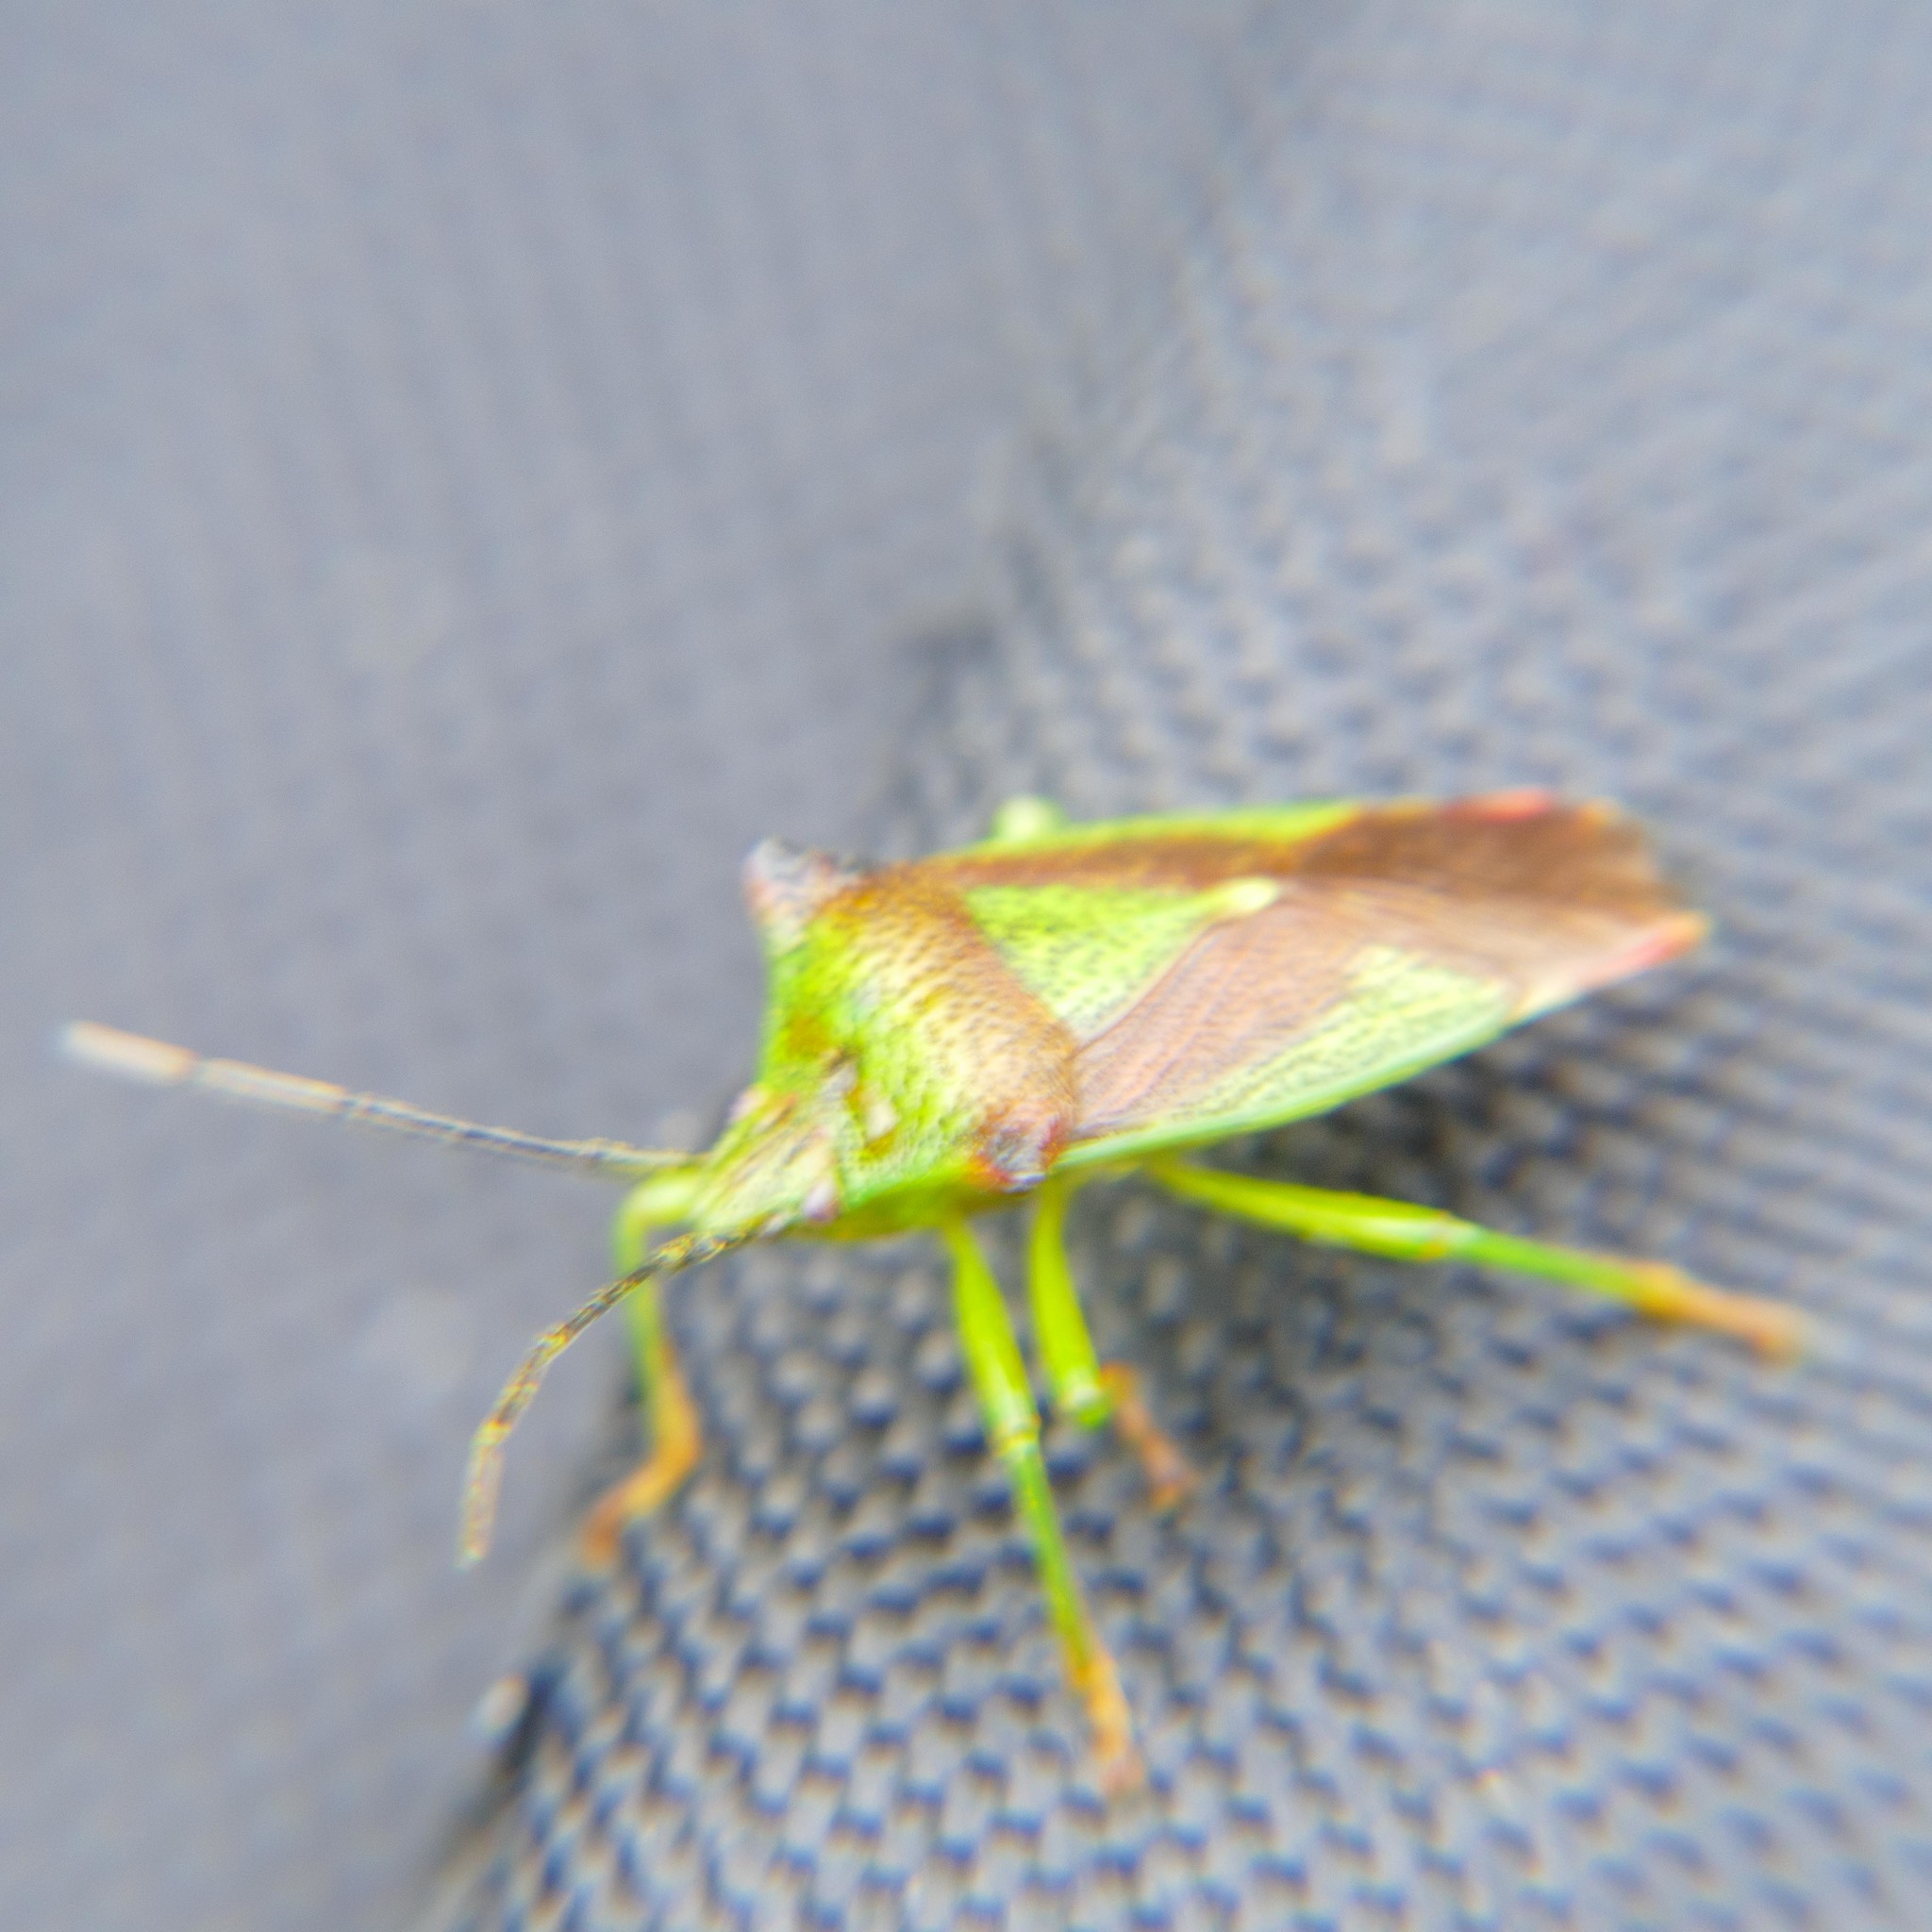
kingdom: Animalia
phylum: Arthropoda
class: Insecta
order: Hemiptera
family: Acanthosomatidae
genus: Acanthosoma
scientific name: Acanthosoma haemorrhoidale
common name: Hawthorn shieldbug
